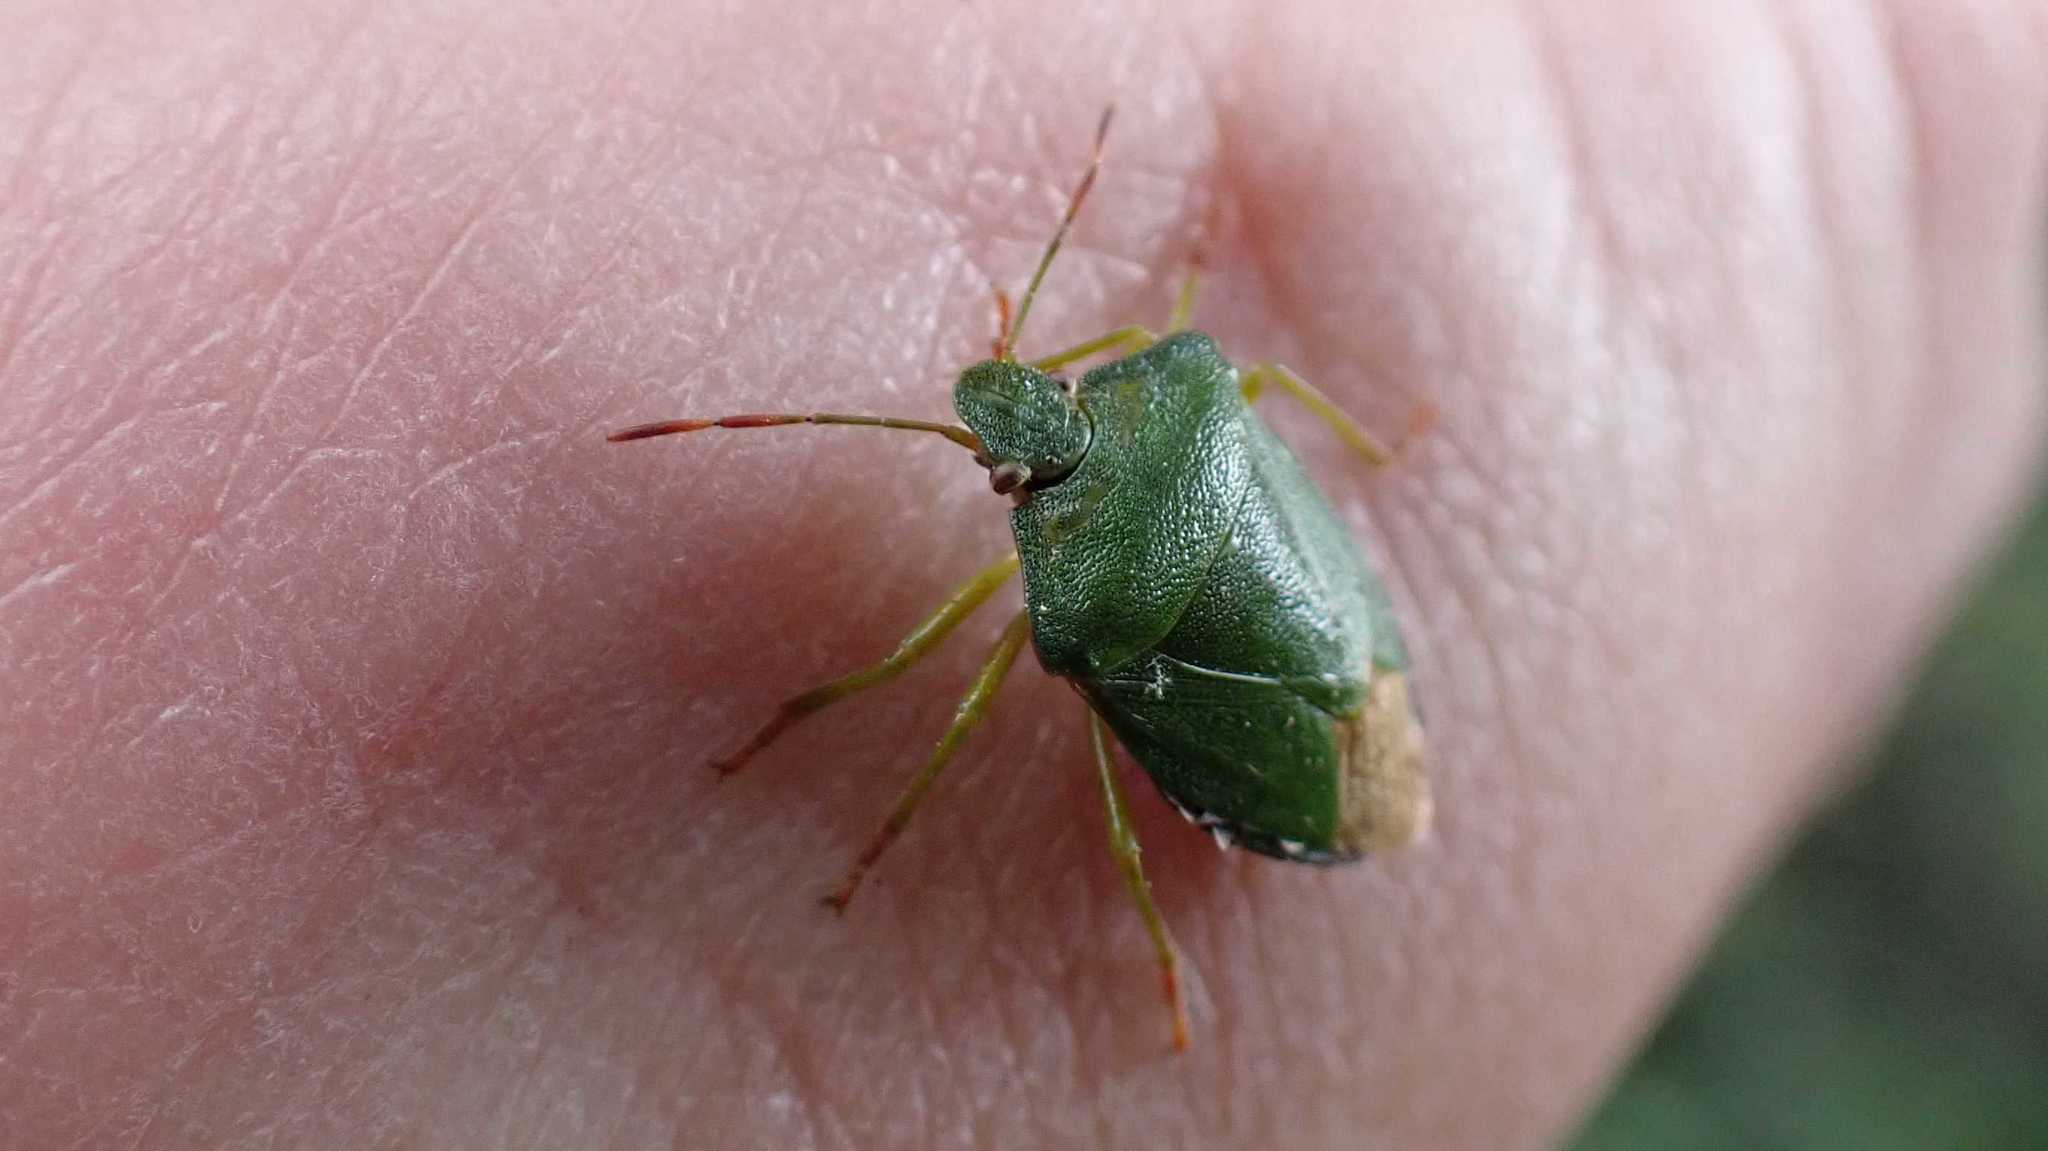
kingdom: Animalia
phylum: Arthropoda
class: Insecta
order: Hemiptera
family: Pentatomidae
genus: Palomena
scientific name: Palomena prasina
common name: Green shieldbug
